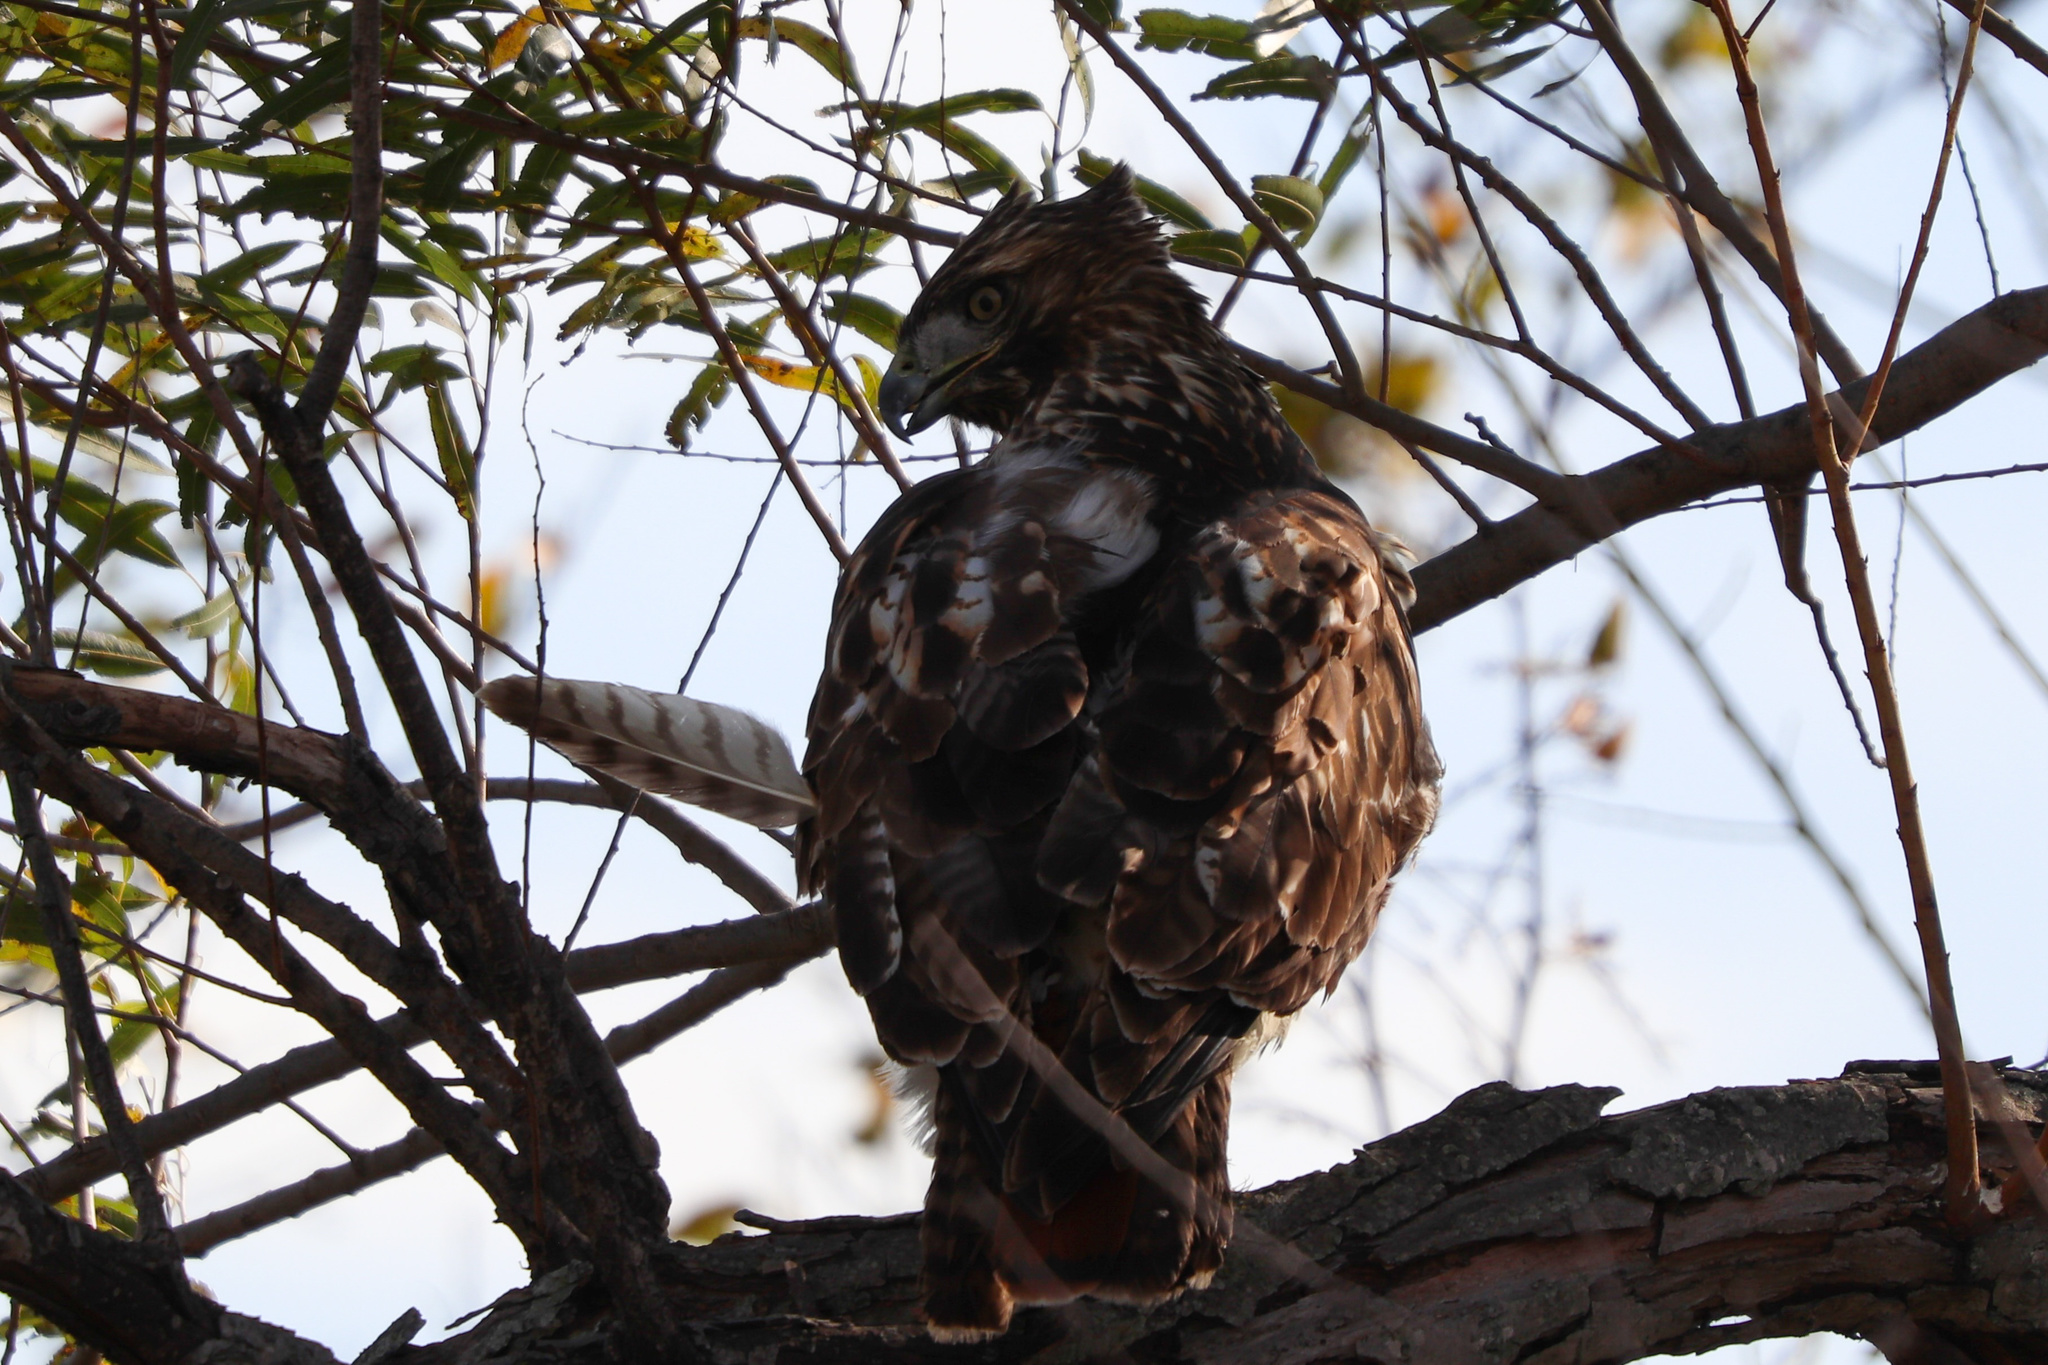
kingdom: Animalia
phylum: Chordata
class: Aves
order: Accipitriformes
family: Accipitridae
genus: Buteo
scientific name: Buteo jamaicensis
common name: Red-tailed hawk
